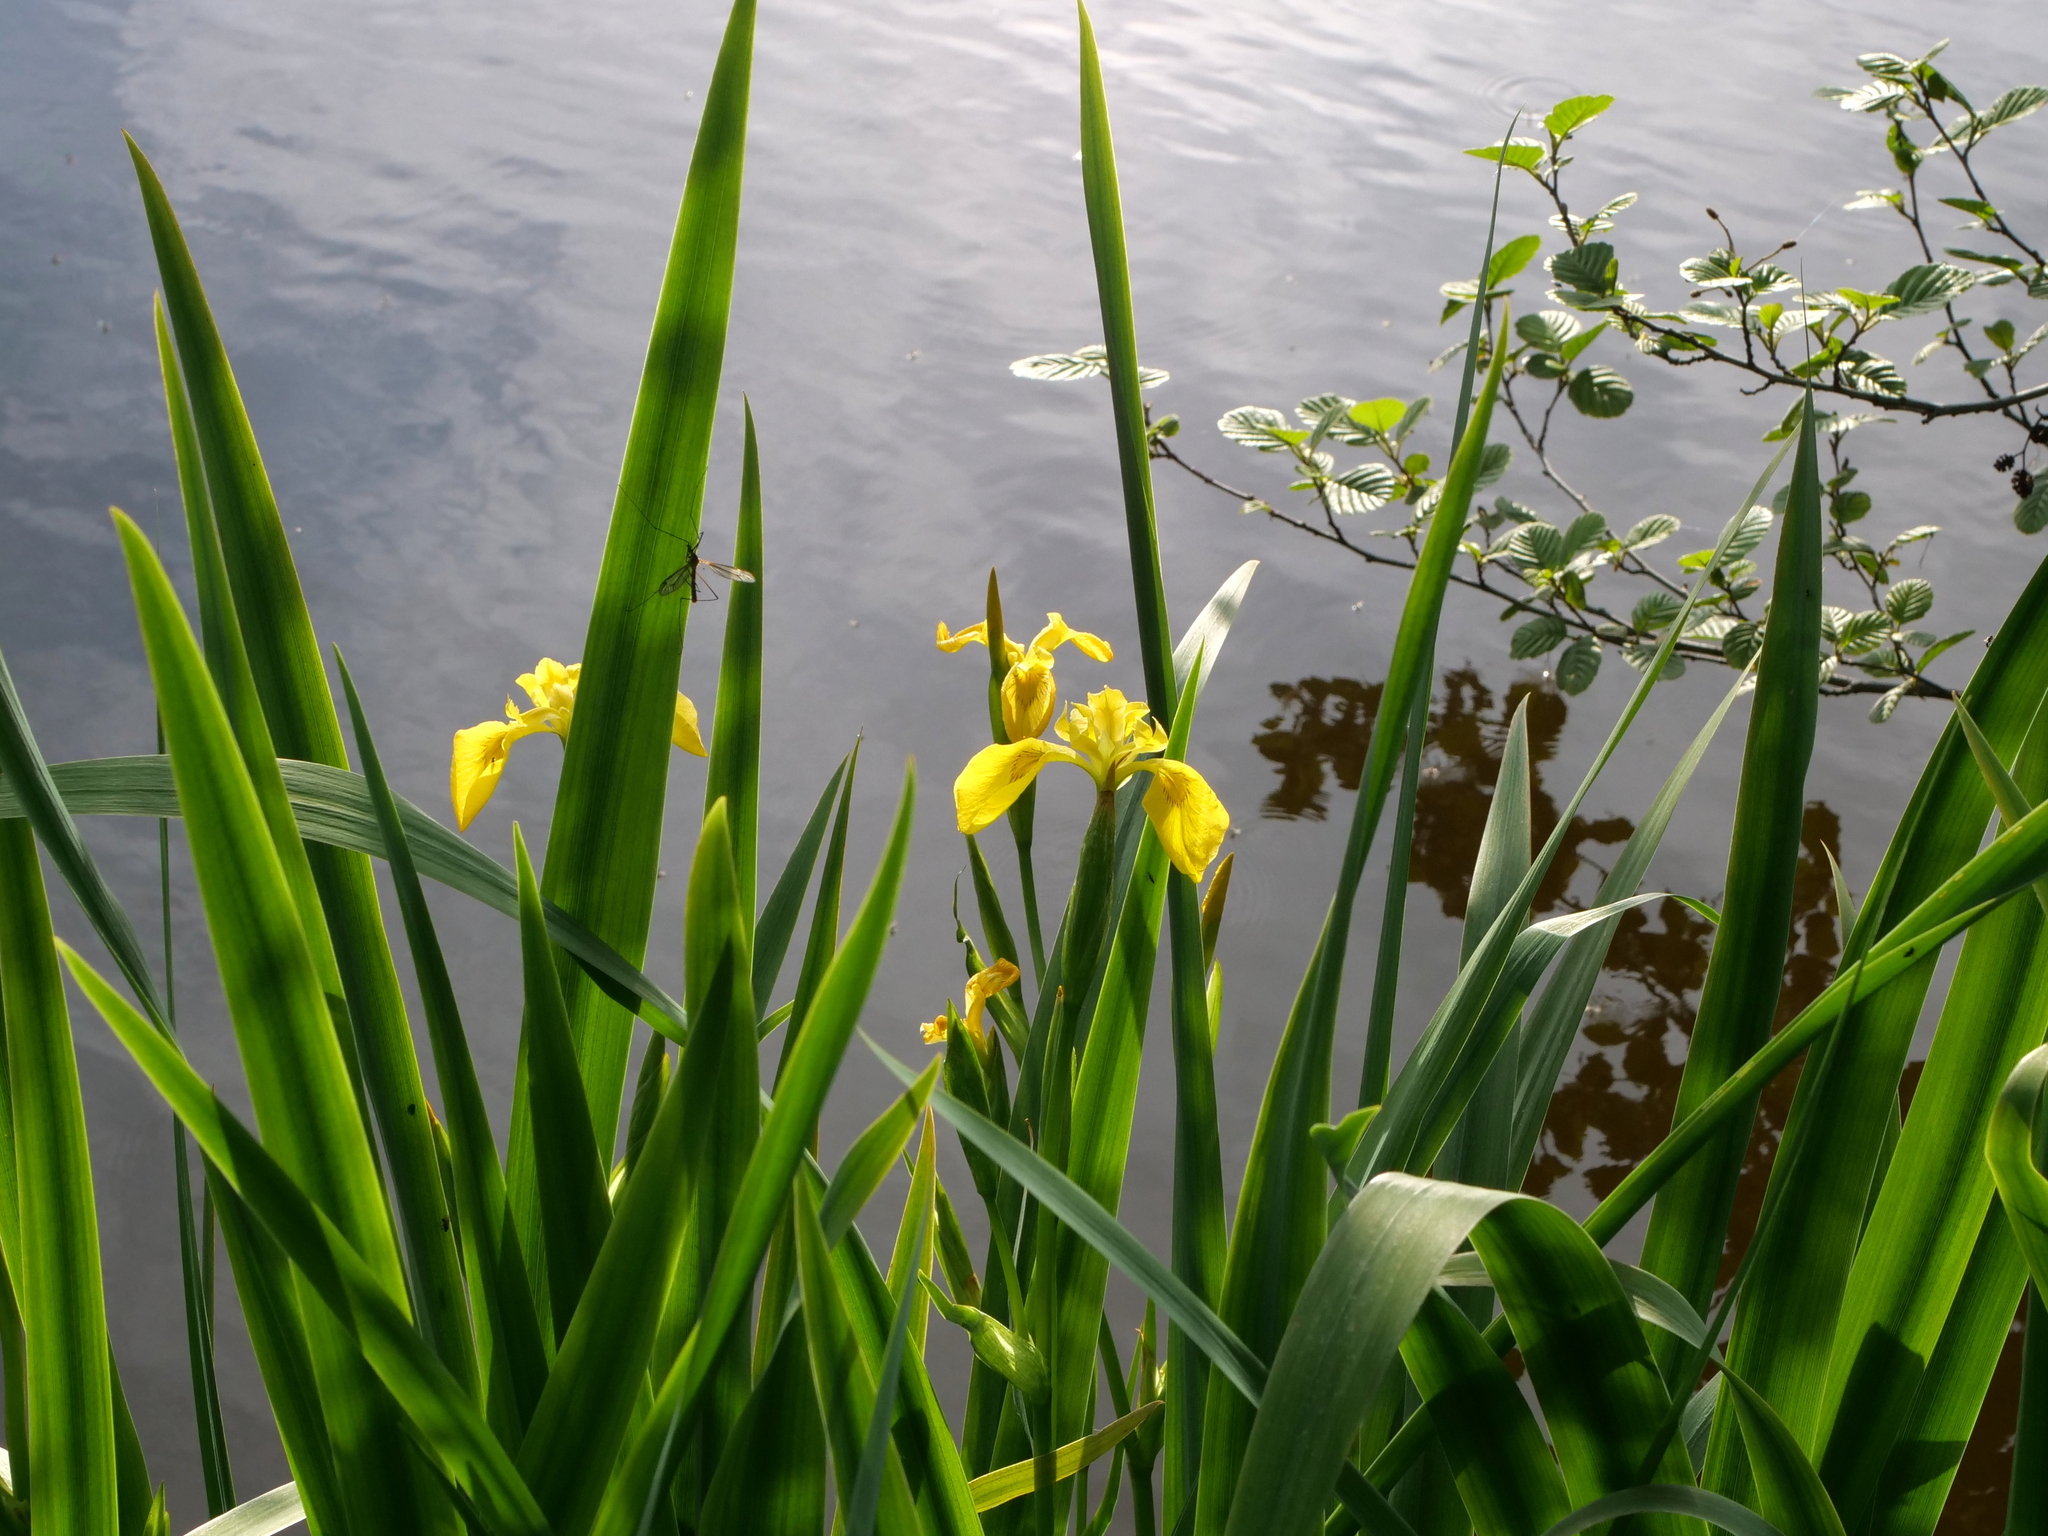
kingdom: Plantae
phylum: Tracheophyta
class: Liliopsida
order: Asparagales
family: Iridaceae
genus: Iris
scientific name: Iris pseudacorus
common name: Yellow flag
